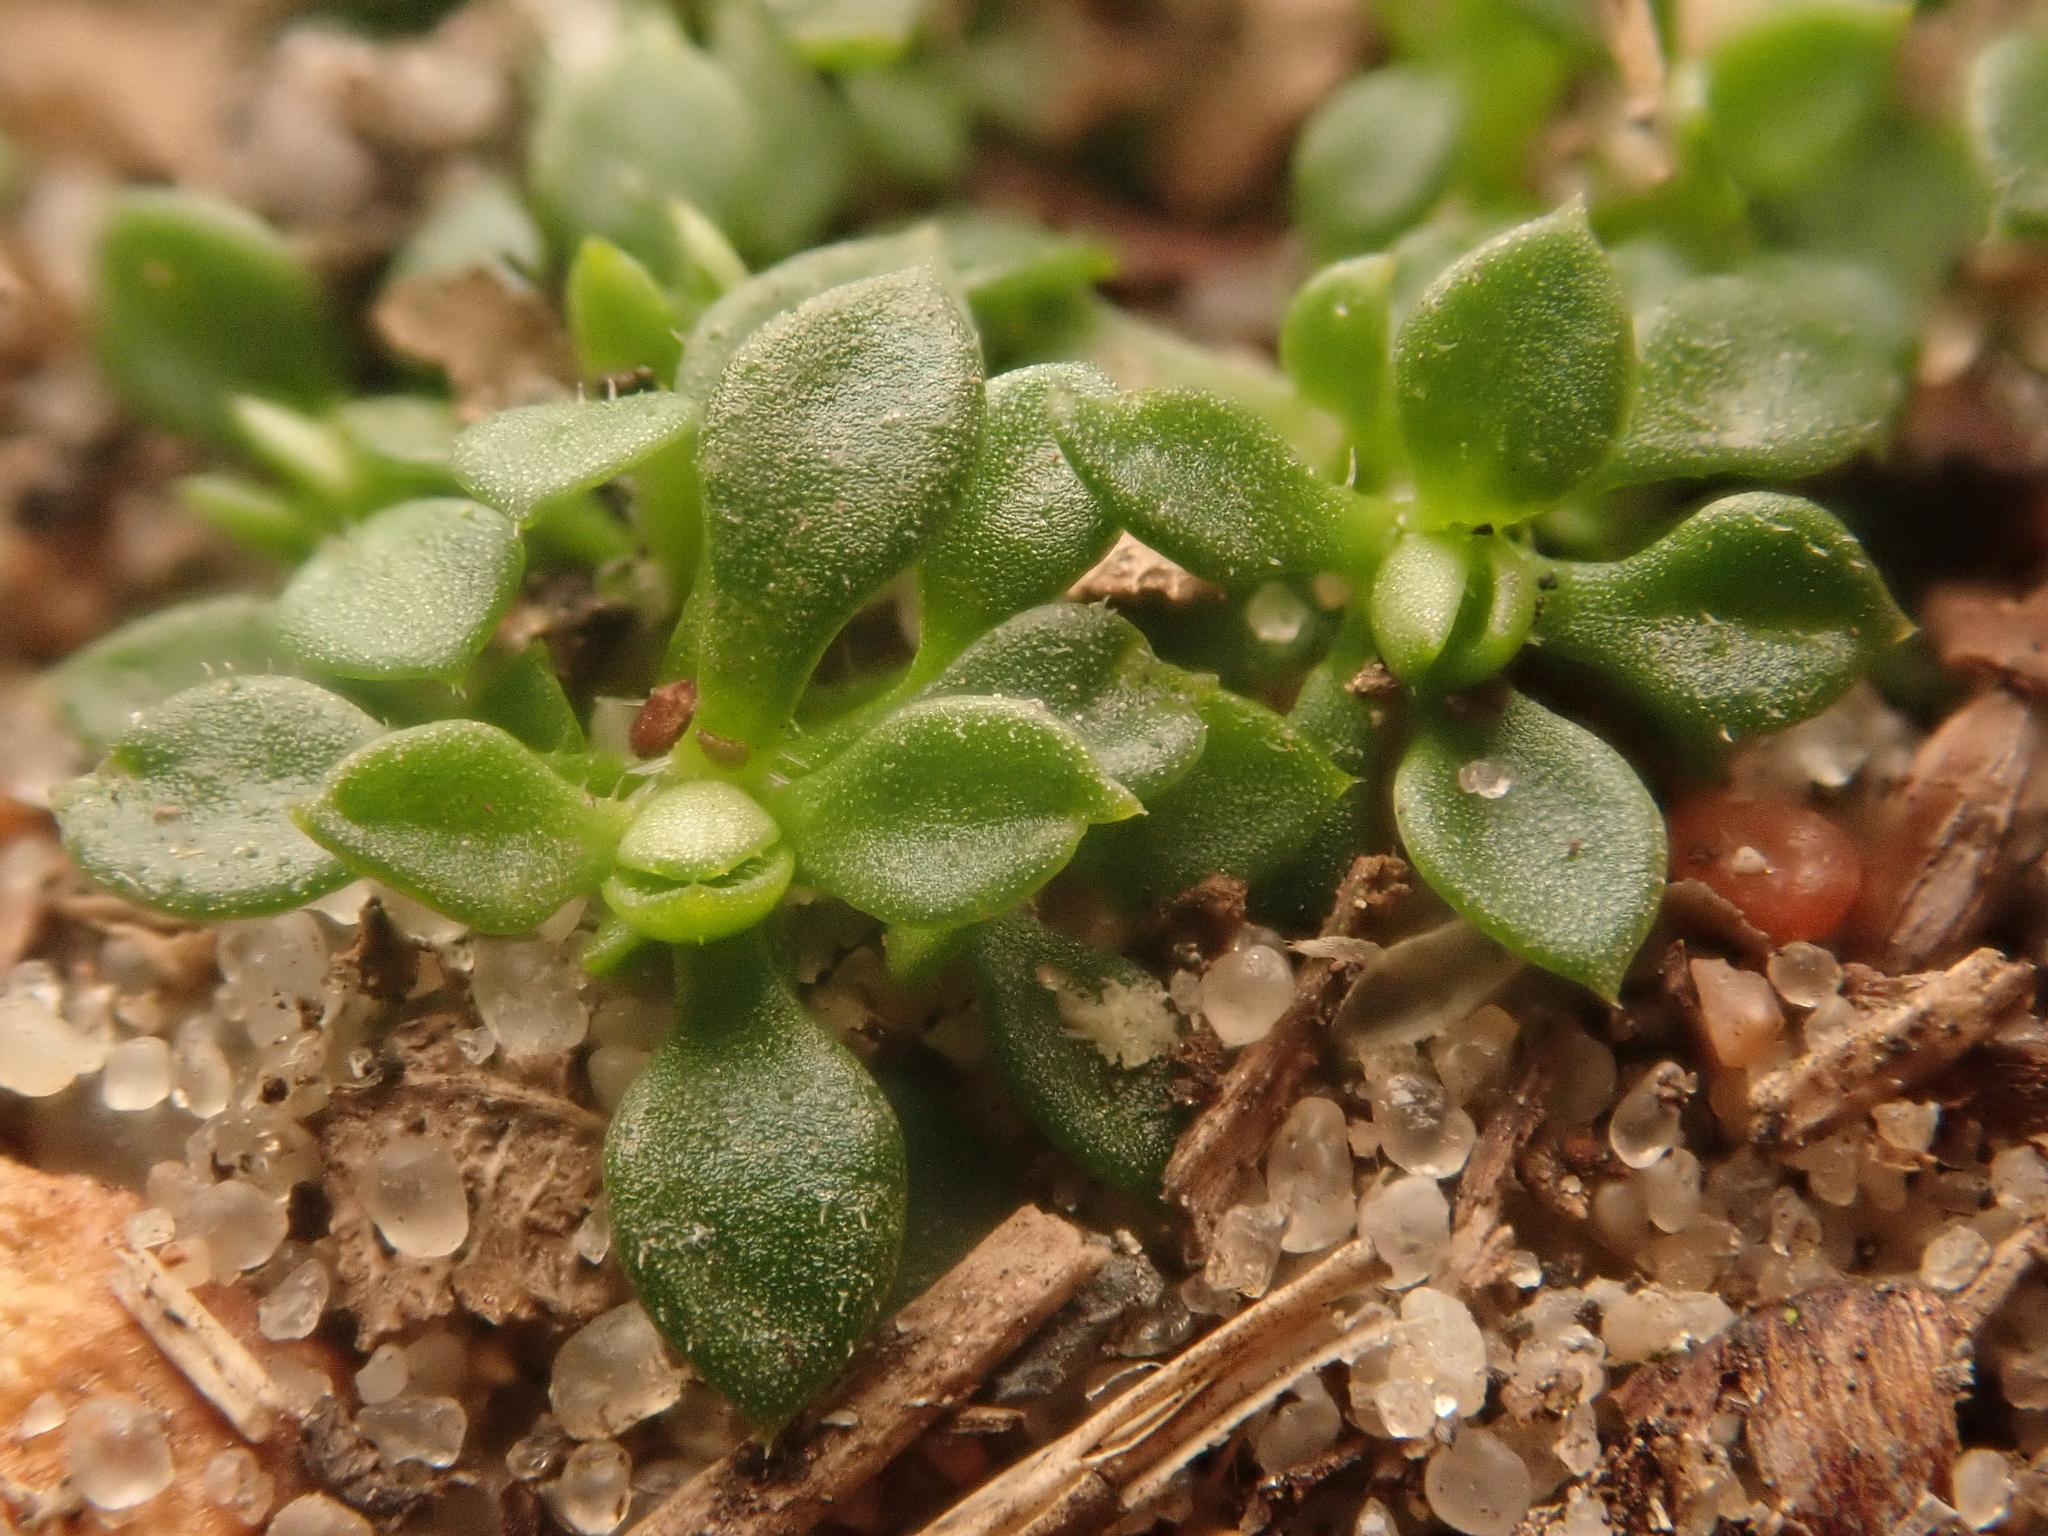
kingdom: Plantae
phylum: Tracheophyta
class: Magnoliopsida
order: Caryophyllales
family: Caryophyllaceae
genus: Arenaria
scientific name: Arenaria serpyllifolia
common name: Thyme-leaved sandwort
